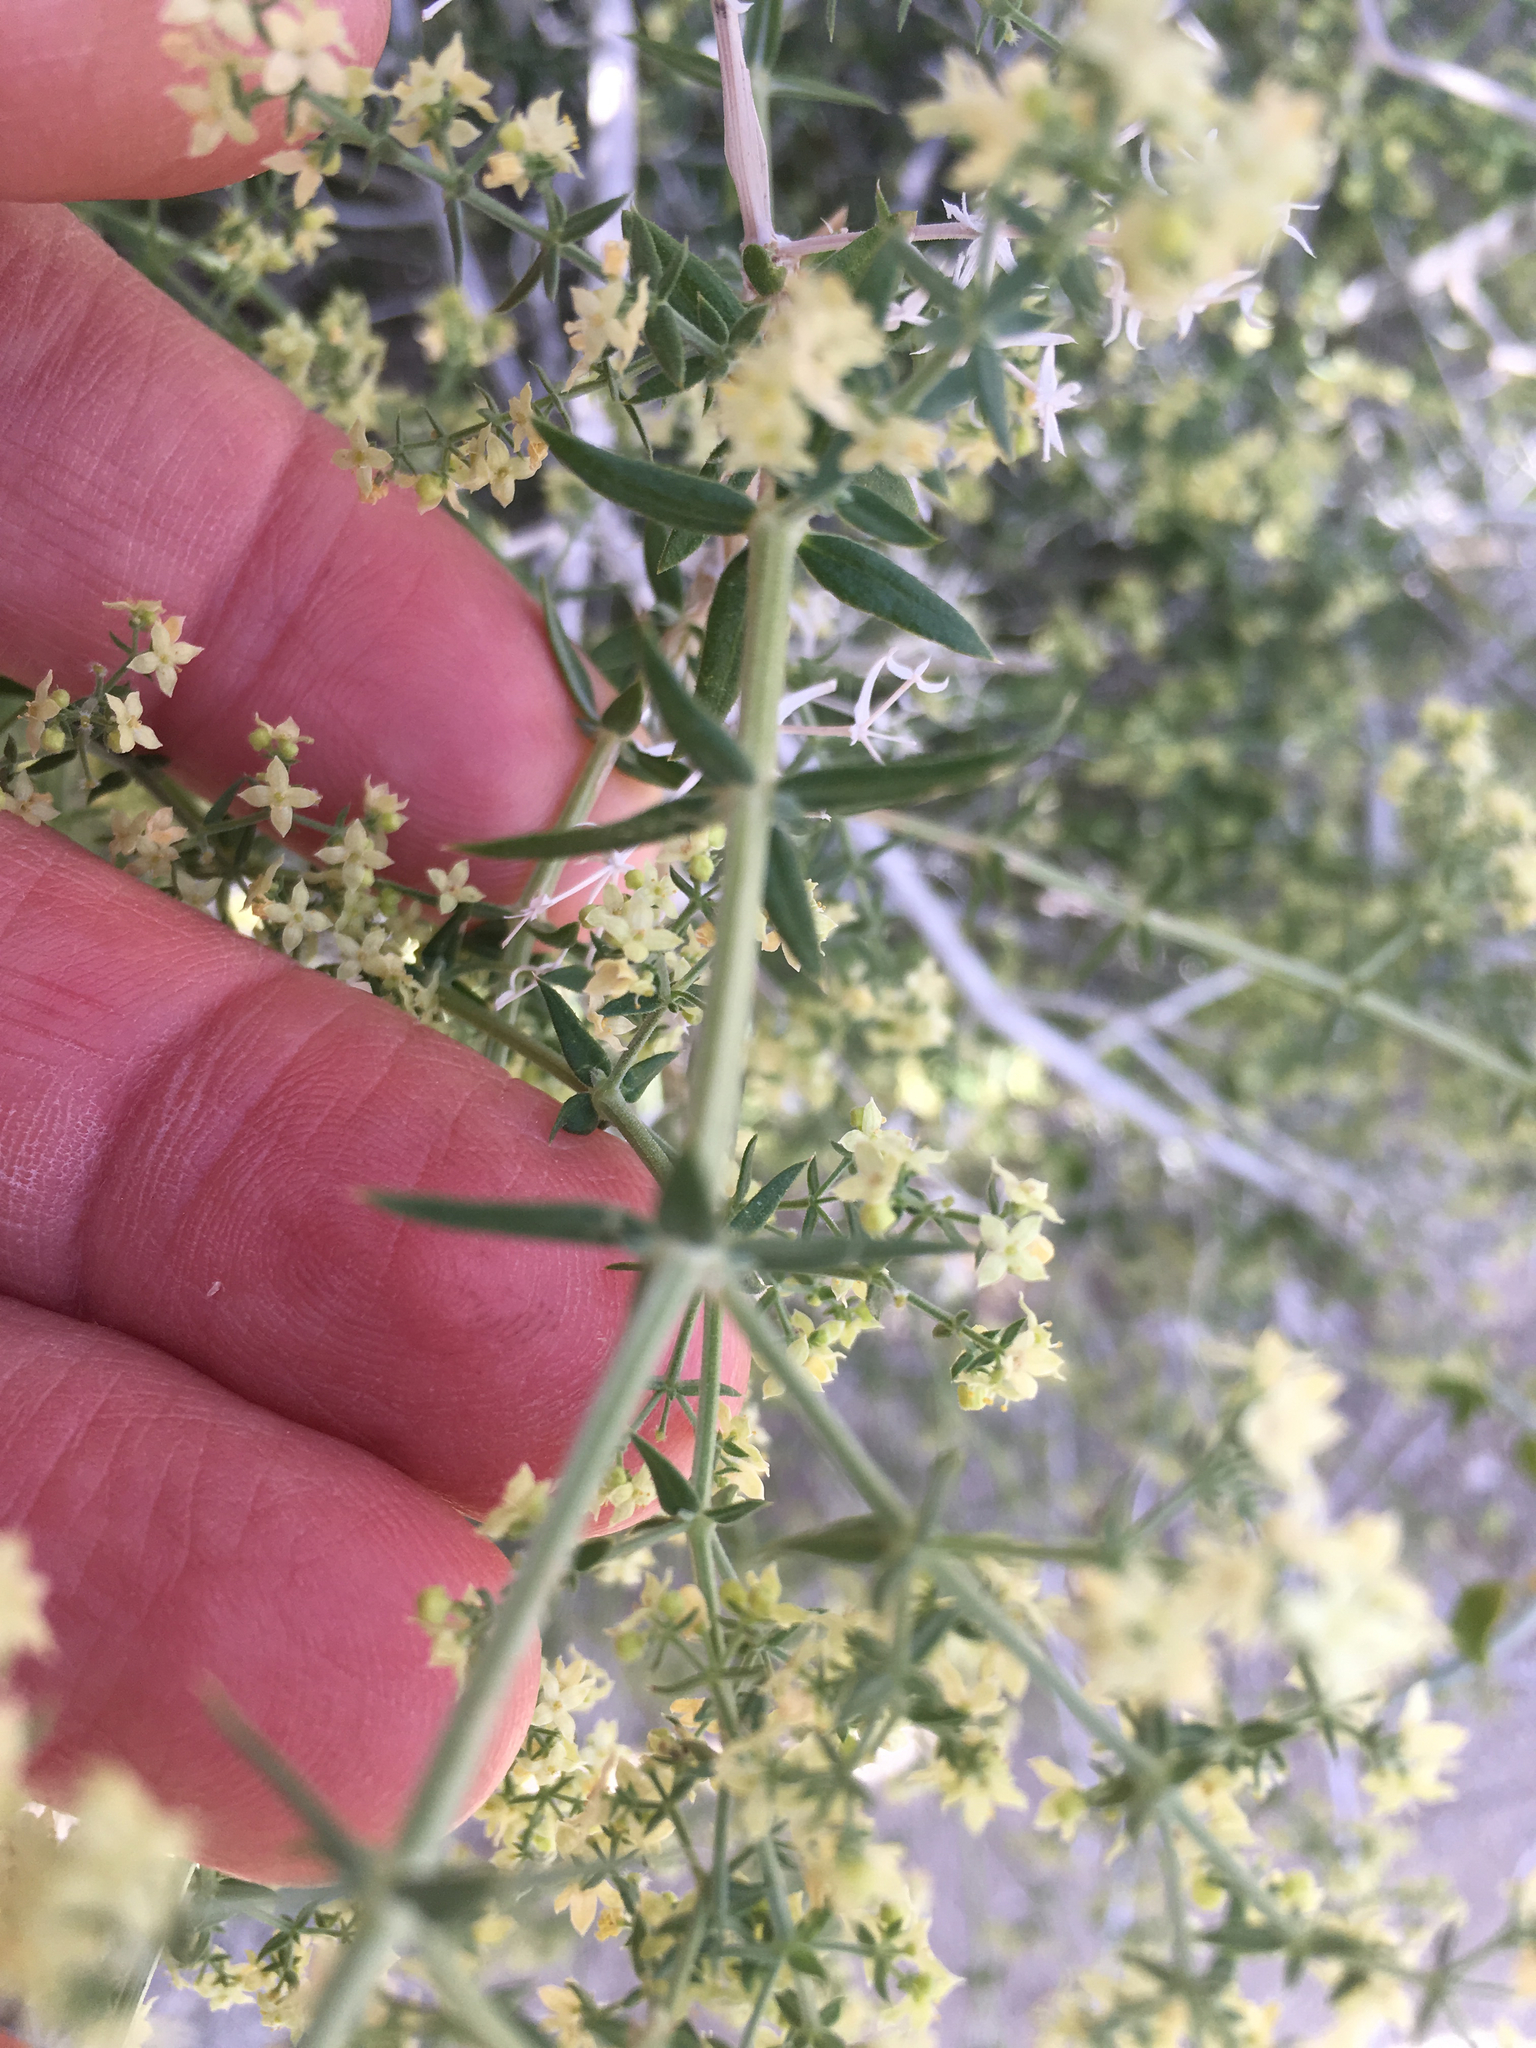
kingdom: Plantae
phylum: Tracheophyta
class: Magnoliopsida
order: Gentianales
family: Rubiaceae
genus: Galium
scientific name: Galium stellatum
